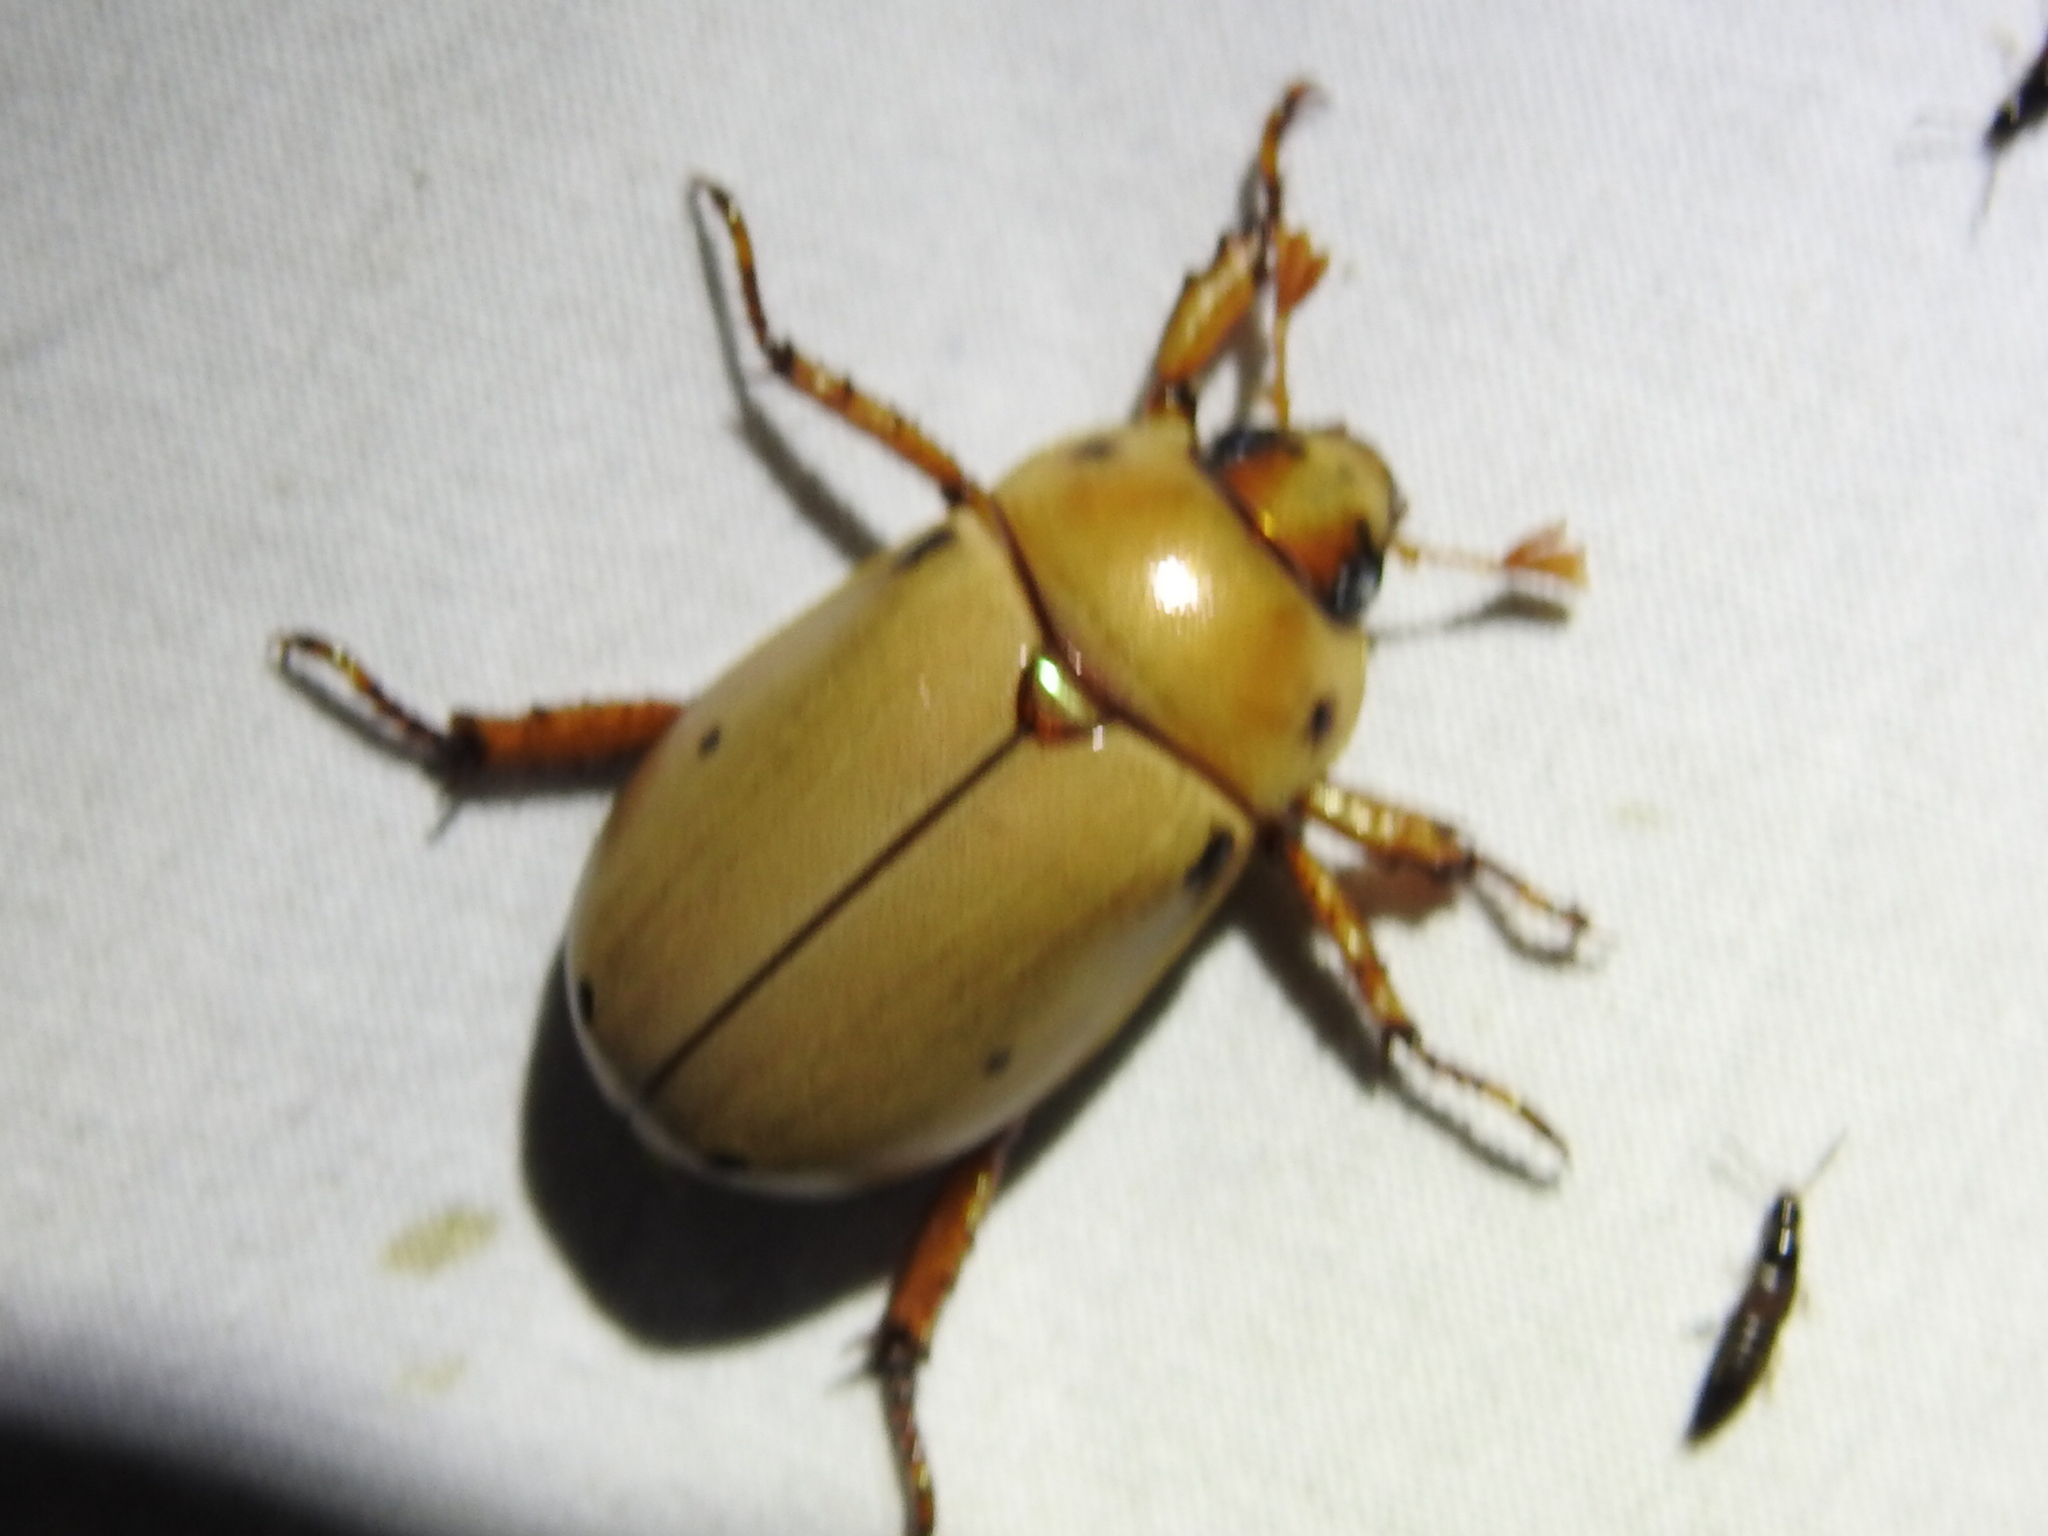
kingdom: Animalia
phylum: Arthropoda
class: Insecta
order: Coleoptera
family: Scarabaeidae
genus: Pelidnota
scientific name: Pelidnota punctata
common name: Grapevine beetle
